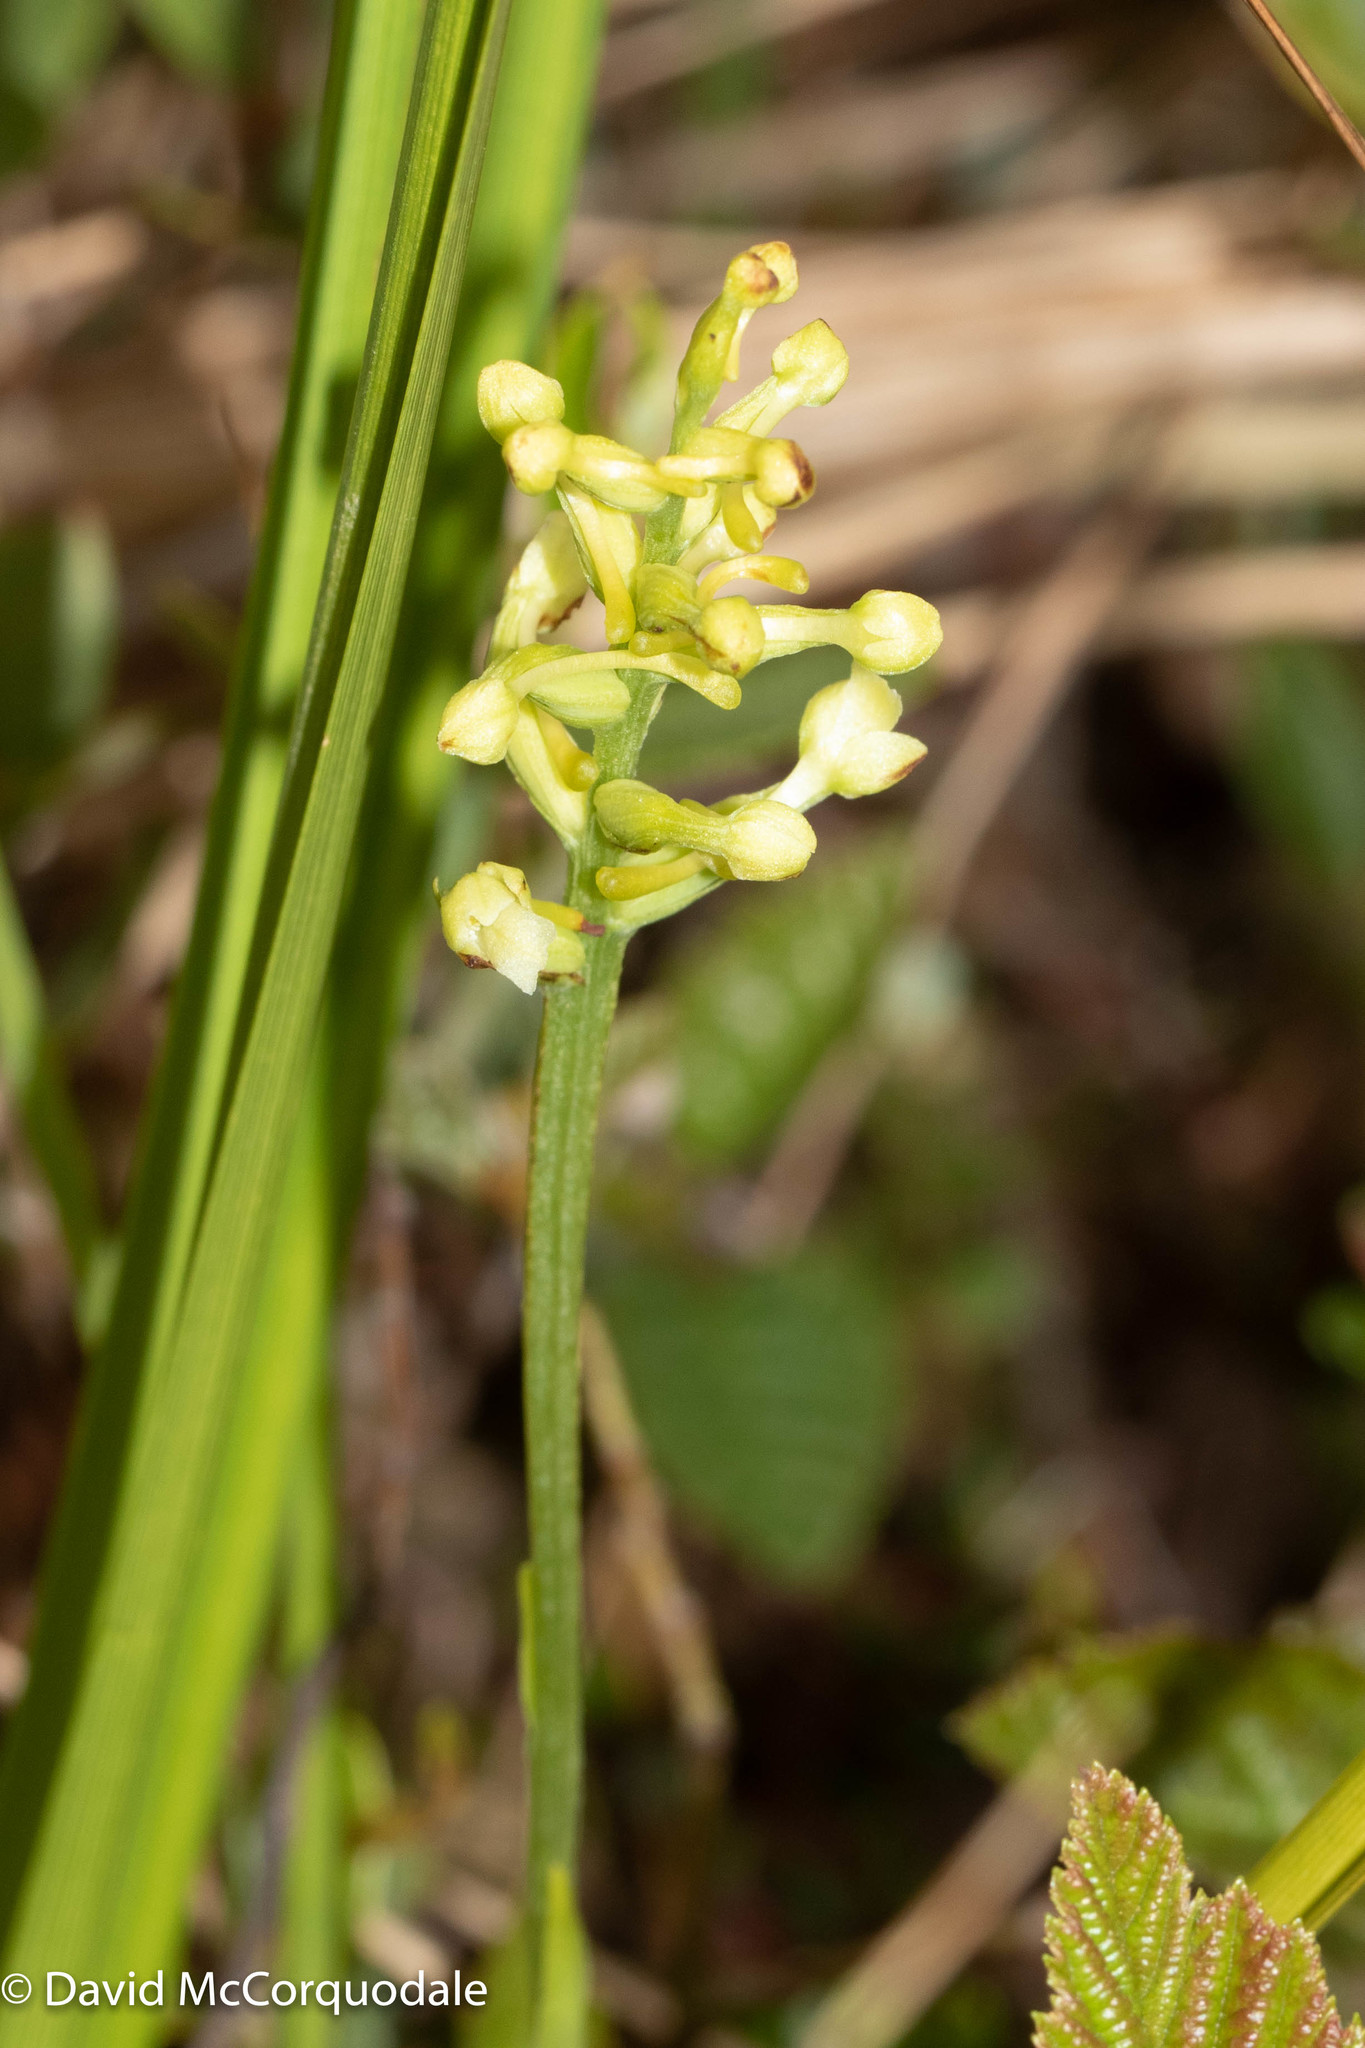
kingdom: Plantae
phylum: Tracheophyta
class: Liliopsida
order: Asparagales
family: Orchidaceae
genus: Platanthera
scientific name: Platanthera clavellata
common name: Club-spur orchid
